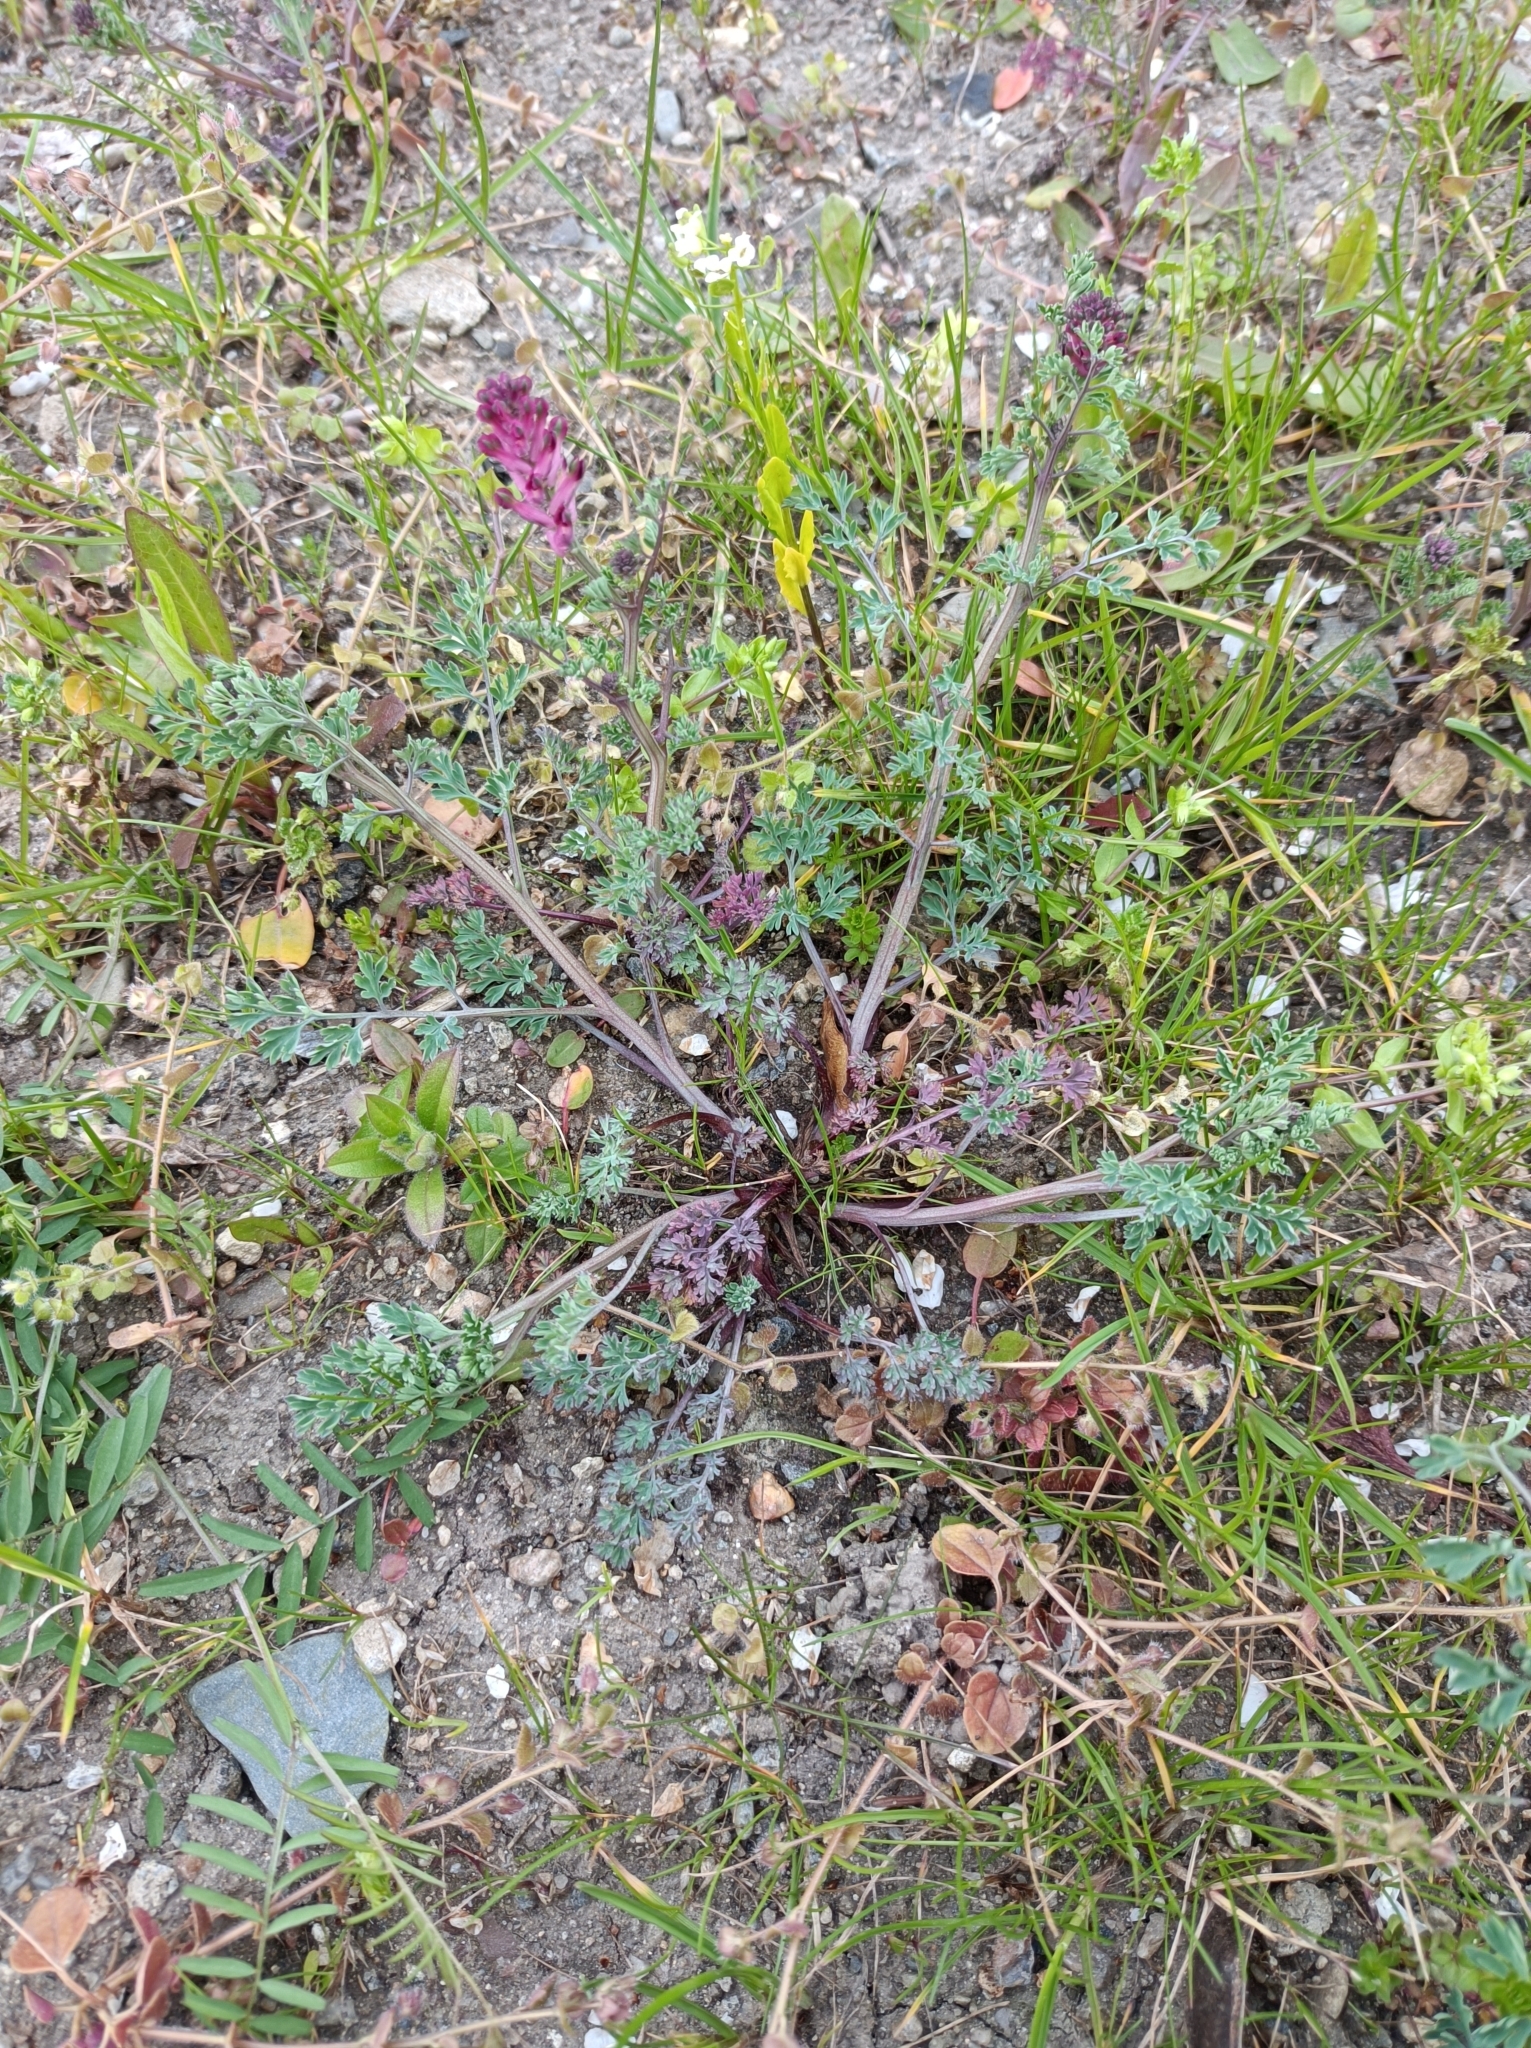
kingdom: Plantae
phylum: Tracheophyta
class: Magnoliopsida
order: Ranunculales
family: Papaveraceae
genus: Fumaria
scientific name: Fumaria officinalis
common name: Common fumitory
